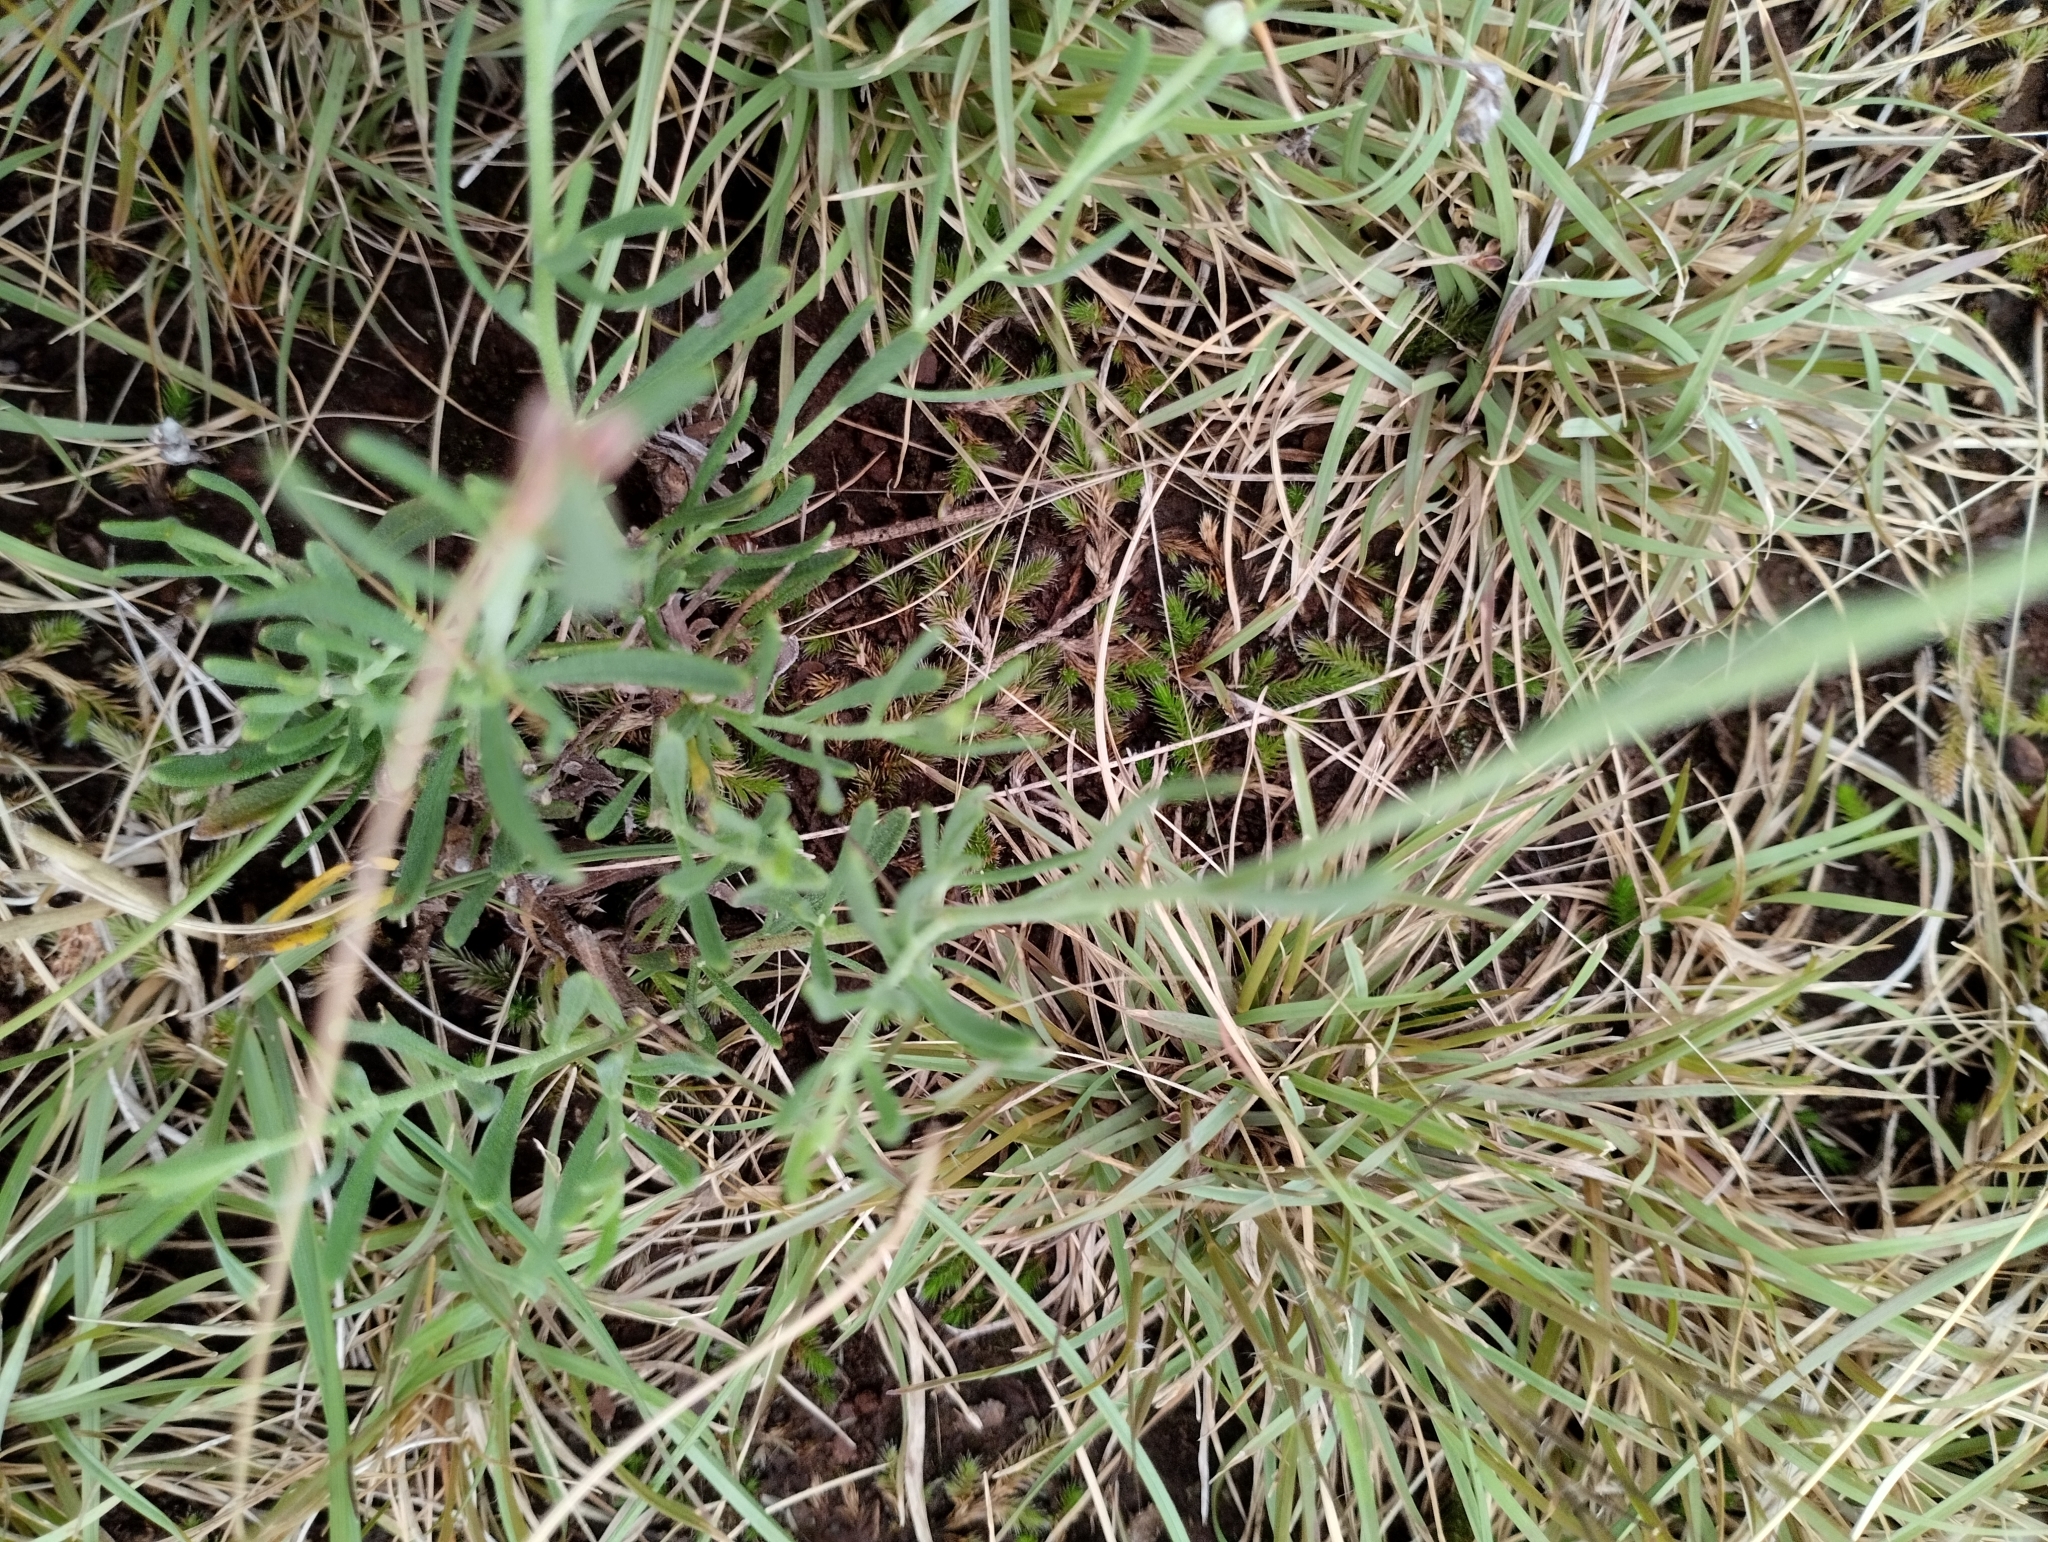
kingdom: Plantae
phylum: Tracheophyta
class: Magnoliopsida
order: Asterales
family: Asteraceae
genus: Helenium
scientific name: Helenium uniflorum
